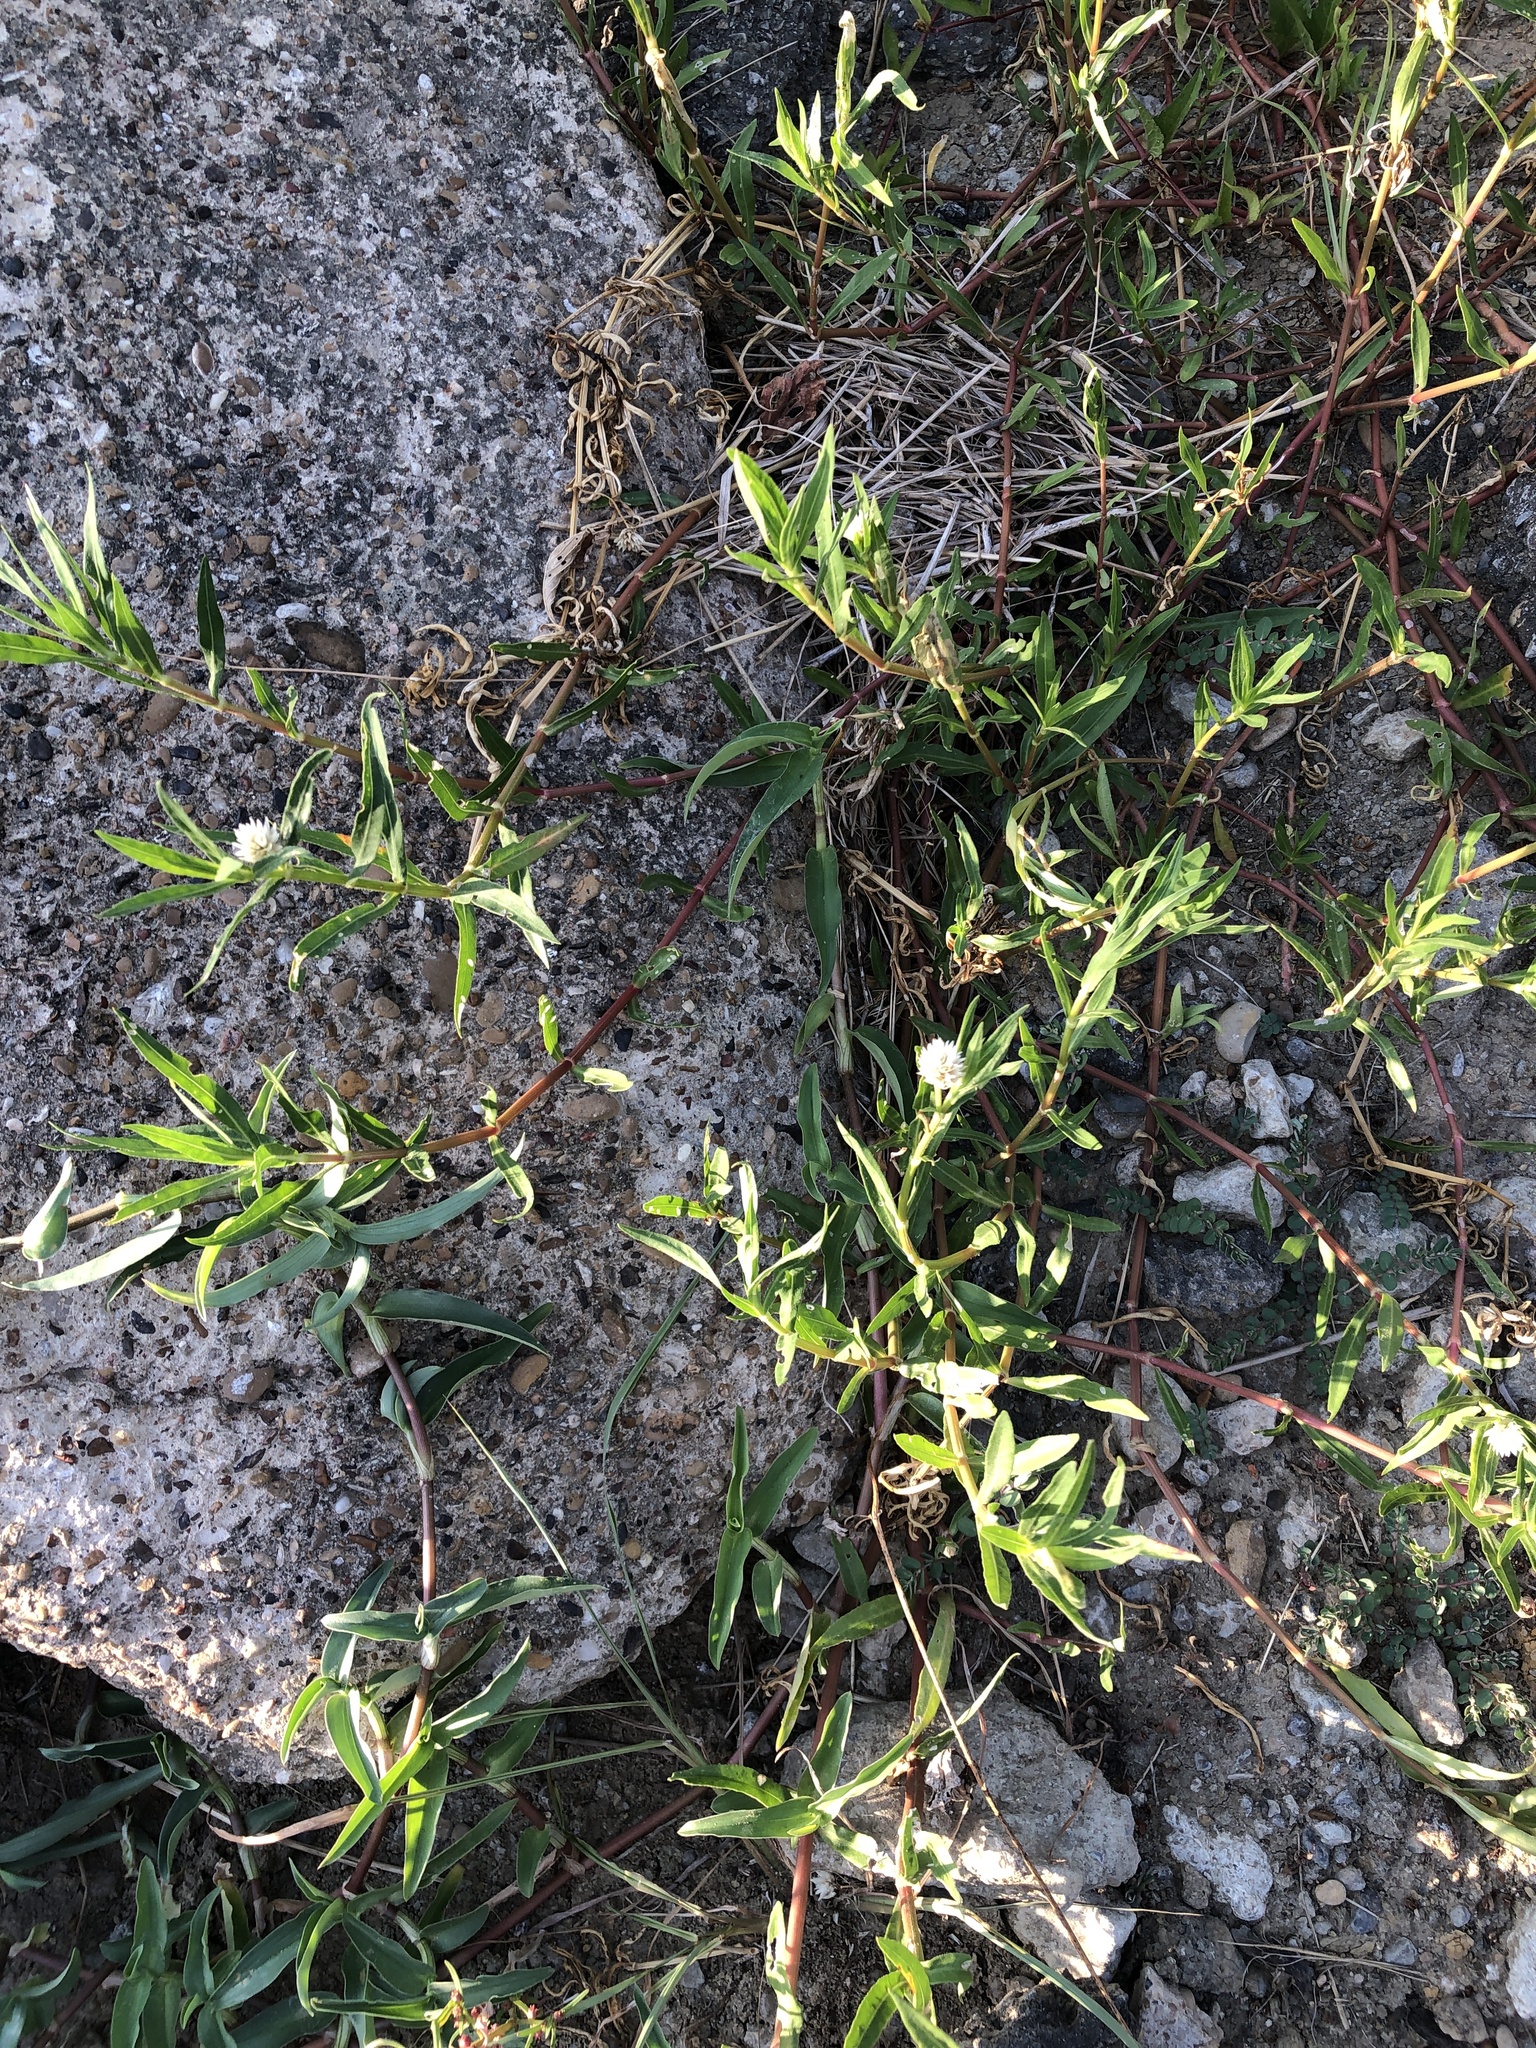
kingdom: Plantae
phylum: Tracheophyta
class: Magnoliopsida
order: Caryophyllales
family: Amaranthaceae
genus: Alternanthera
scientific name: Alternanthera philoxeroides
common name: Alligatorweed
